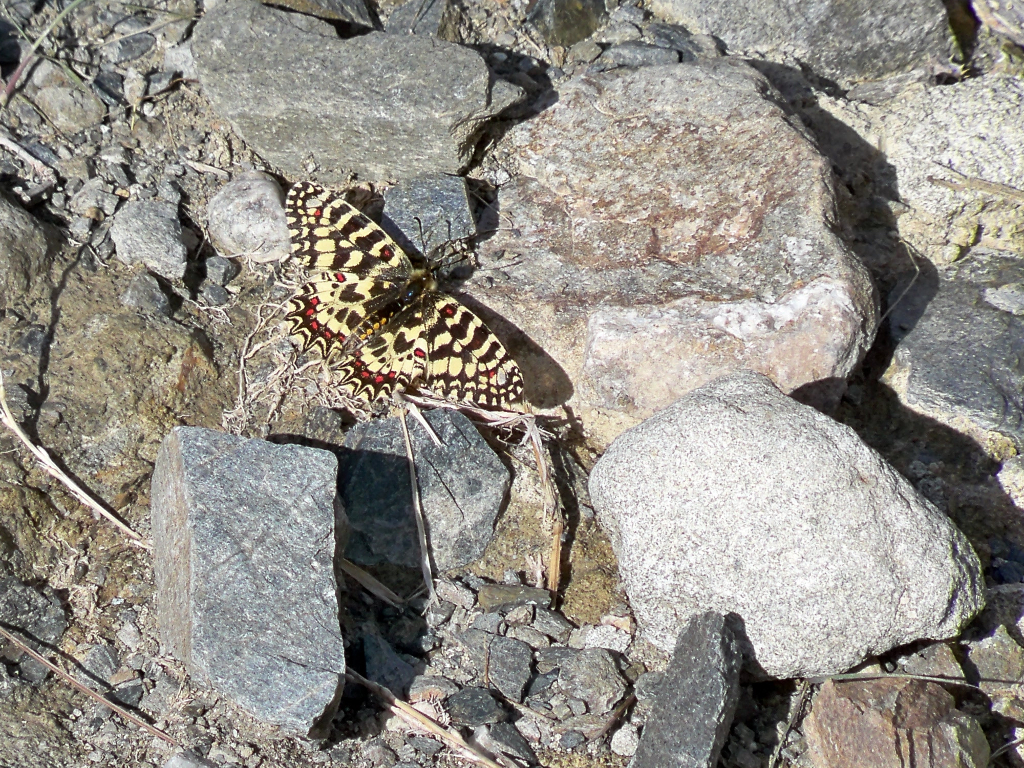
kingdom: Animalia
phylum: Arthropoda
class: Insecta
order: Lepidoptera
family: Papilionidae
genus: Zerynthia
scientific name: Zerynthia rumina
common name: Spanish festoon
